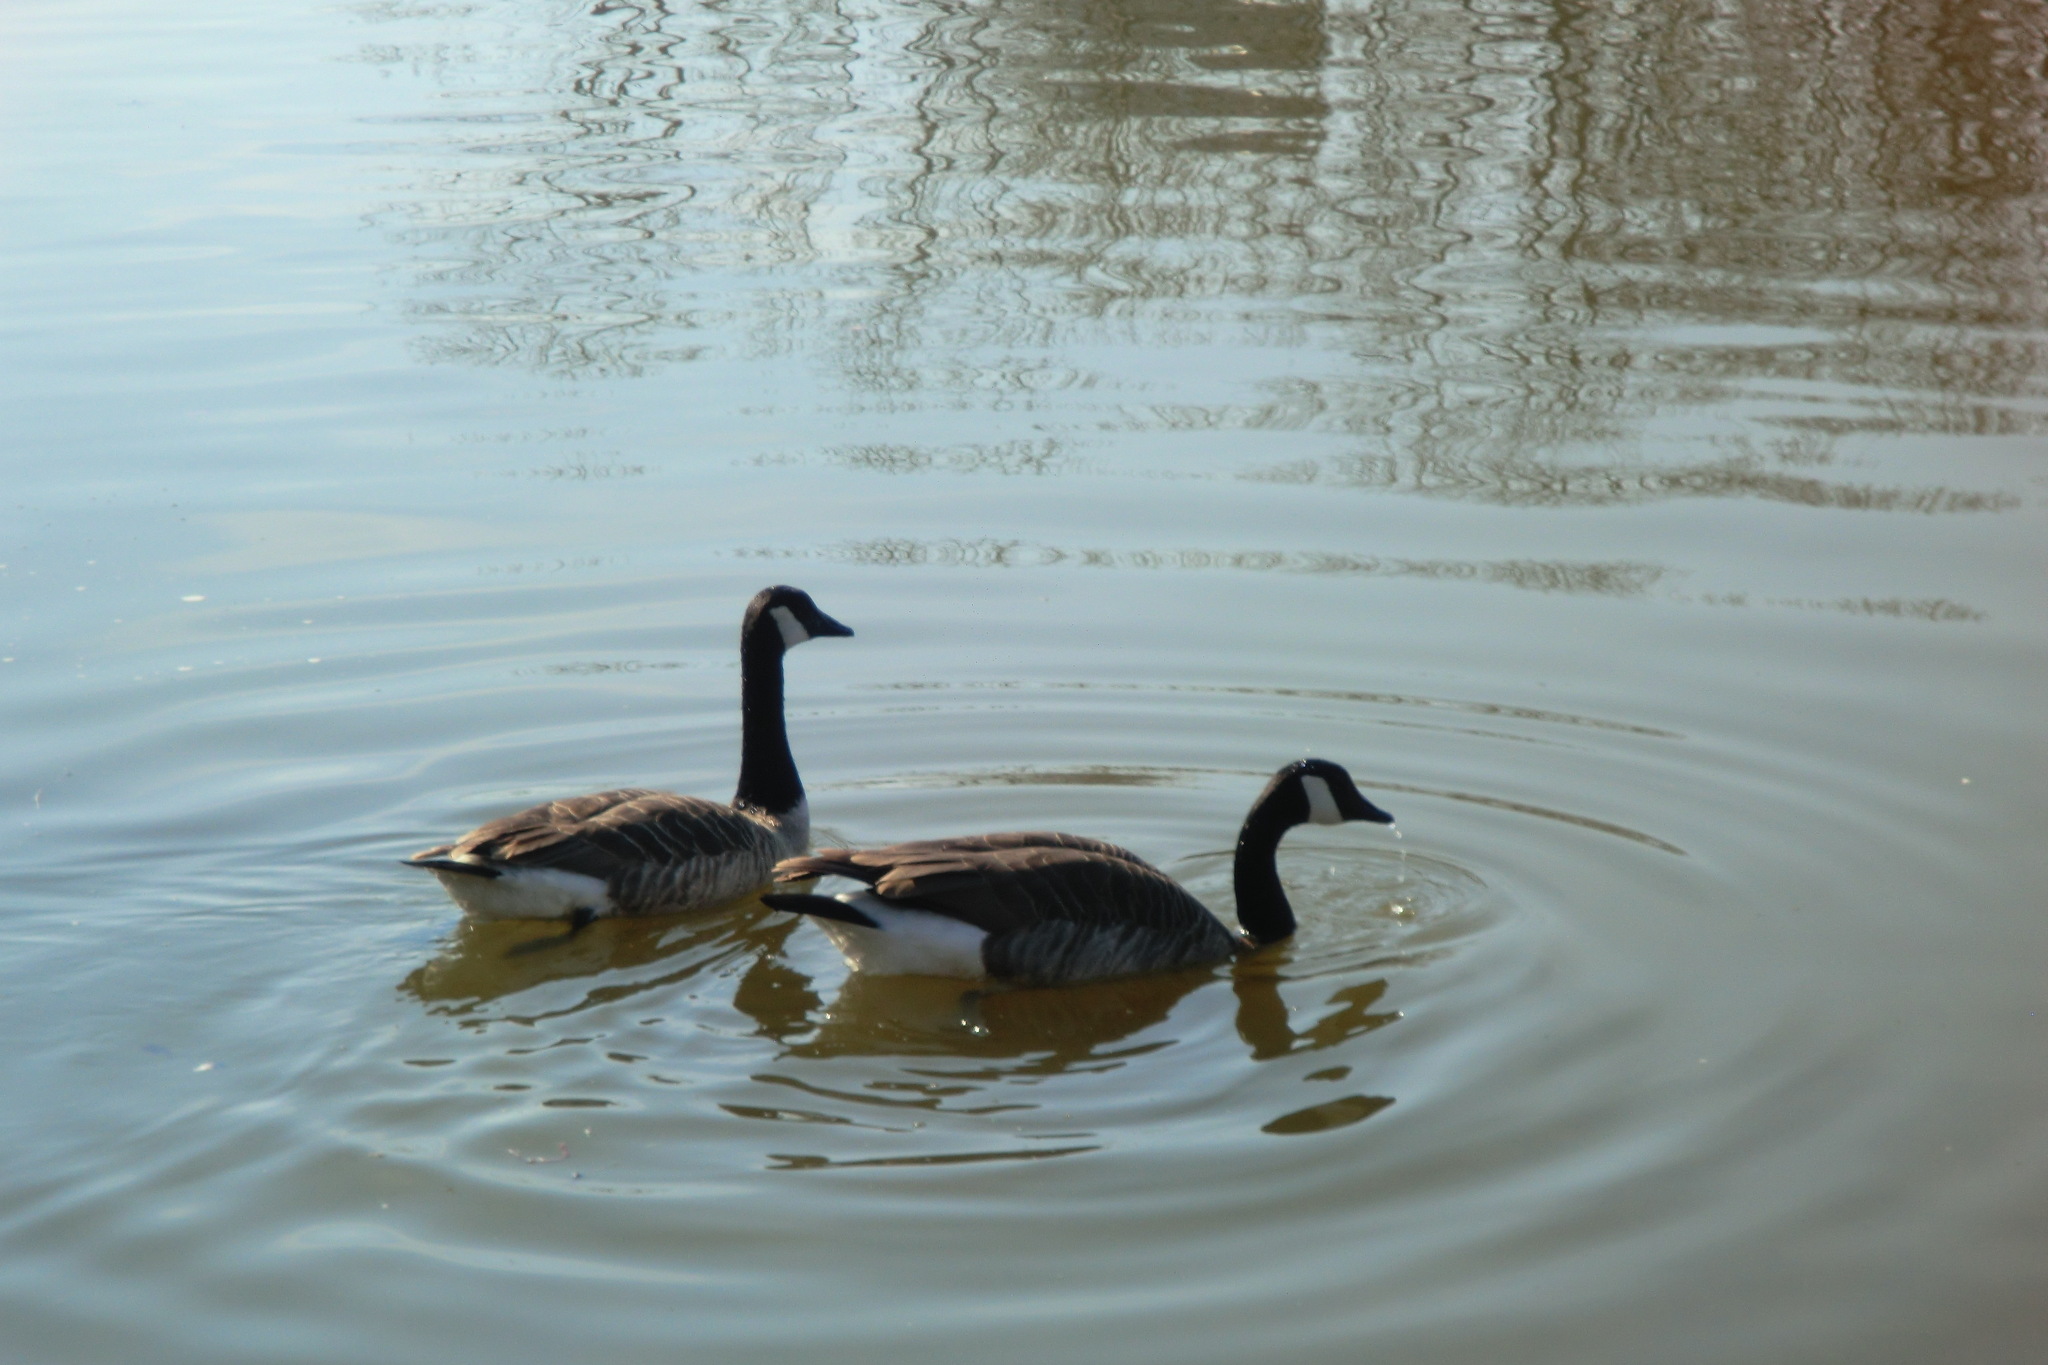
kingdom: Animalia
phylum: Chordata
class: Aves
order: Anseriformes
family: Anatidae
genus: Branta
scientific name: Branta canadensis
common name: Canada goose
